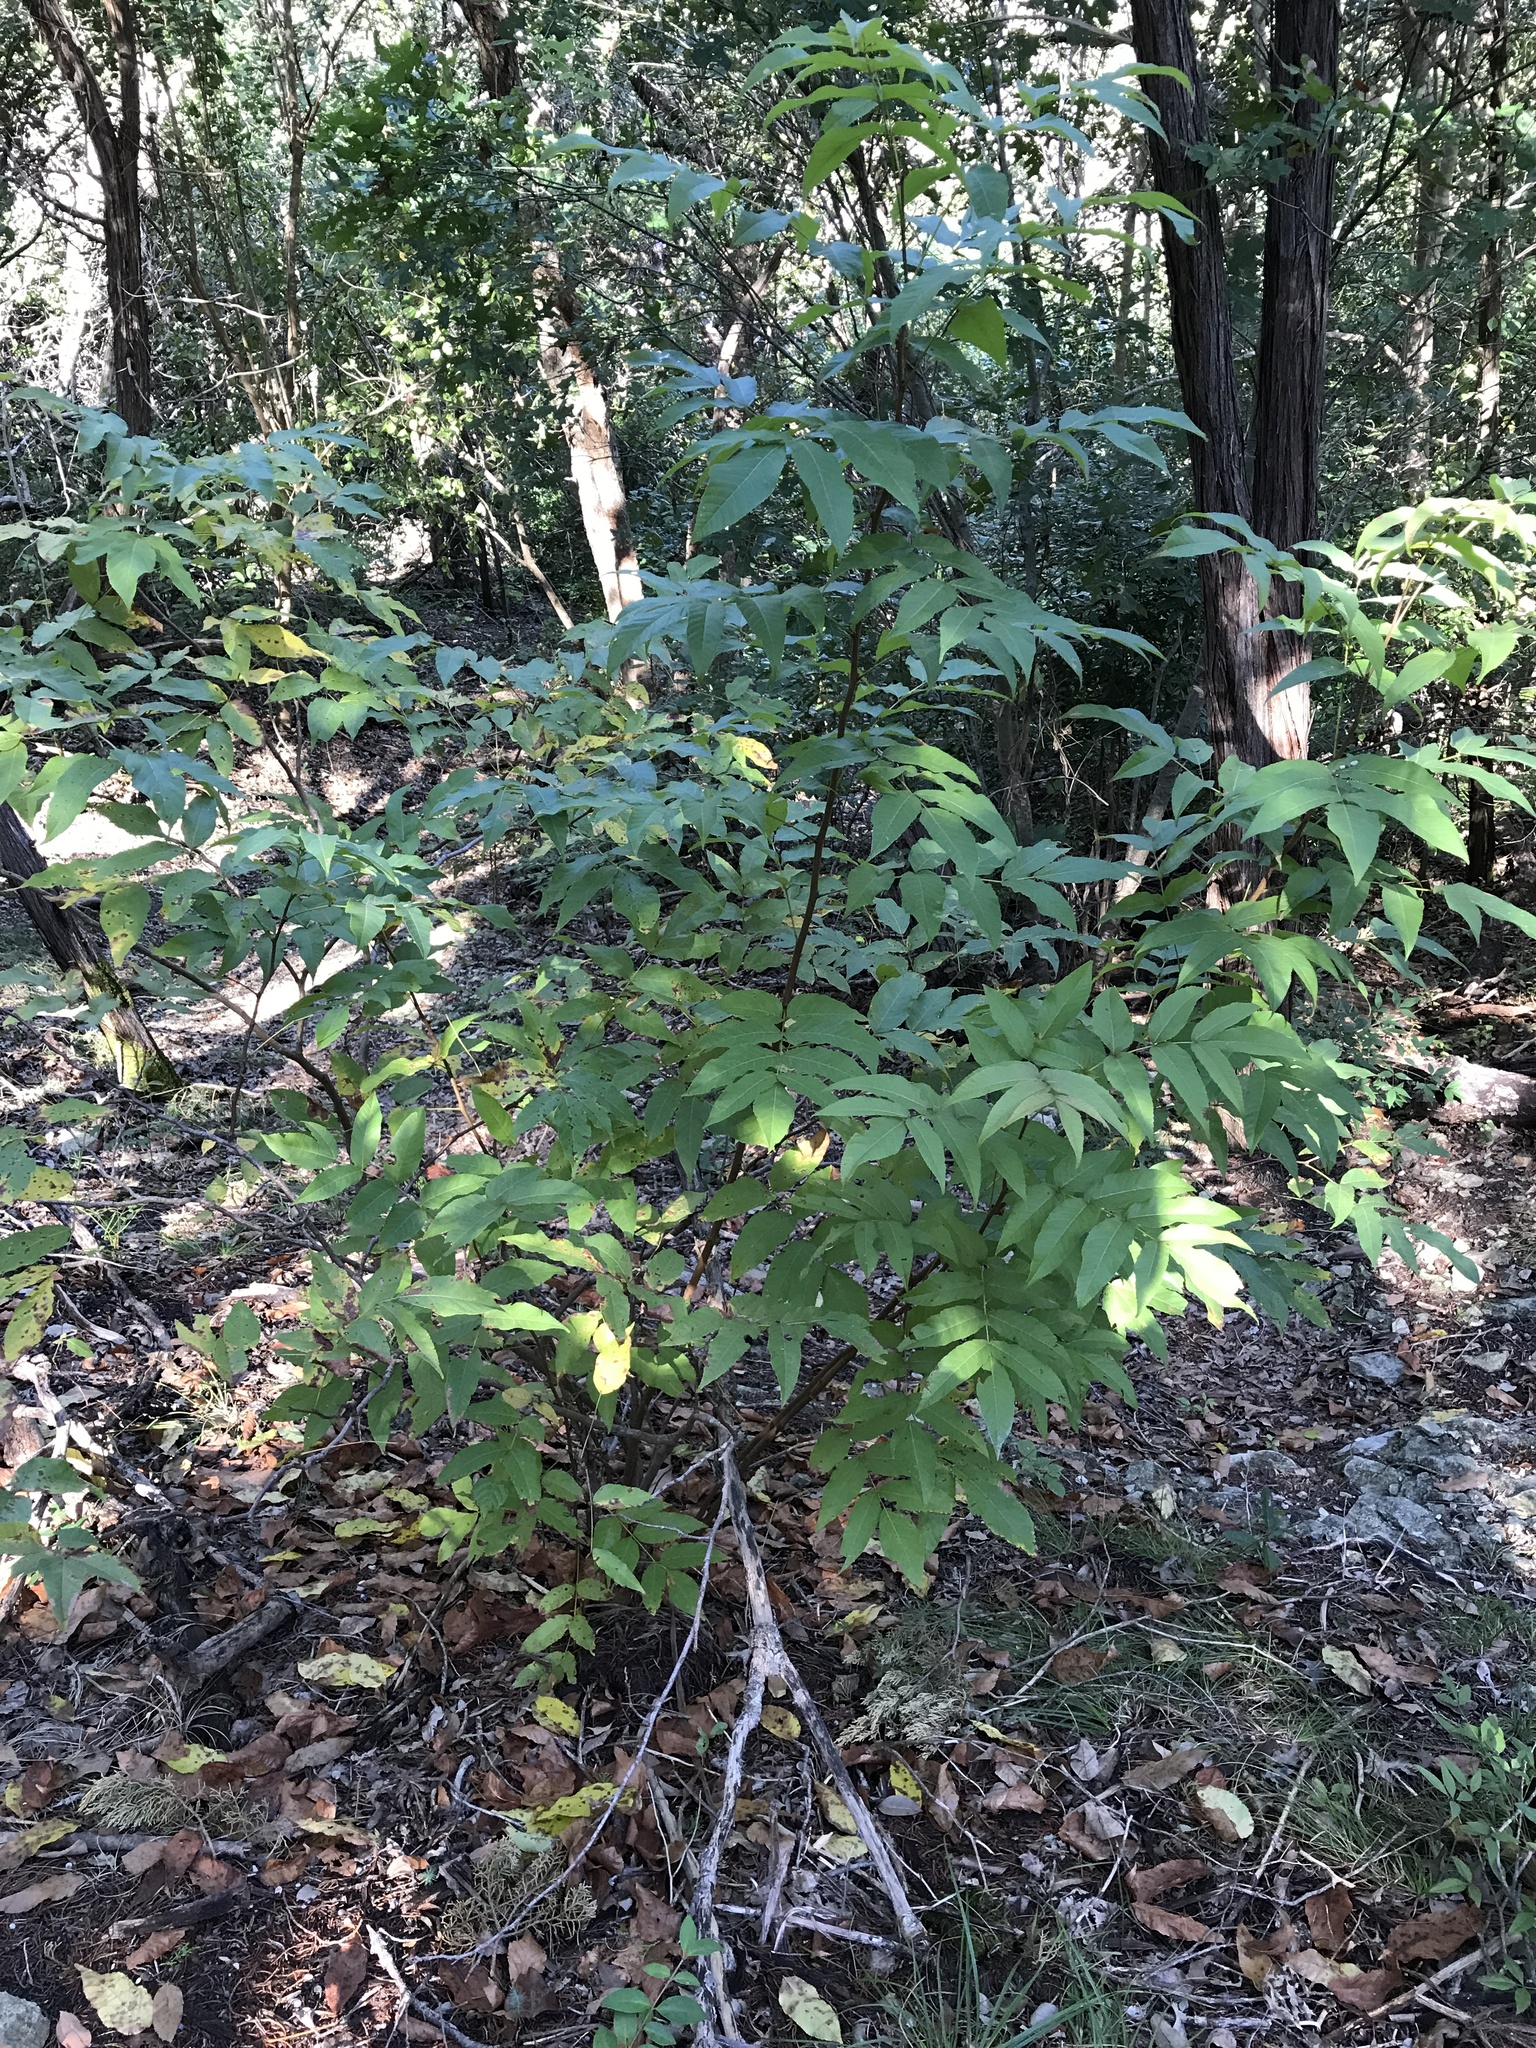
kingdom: Plantae
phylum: Tracheophyta
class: Magnoliopsida
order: Sapindales
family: Sapindaceae
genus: Ungnadia
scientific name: Ungnadia speciosa
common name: Texas-buckeye
